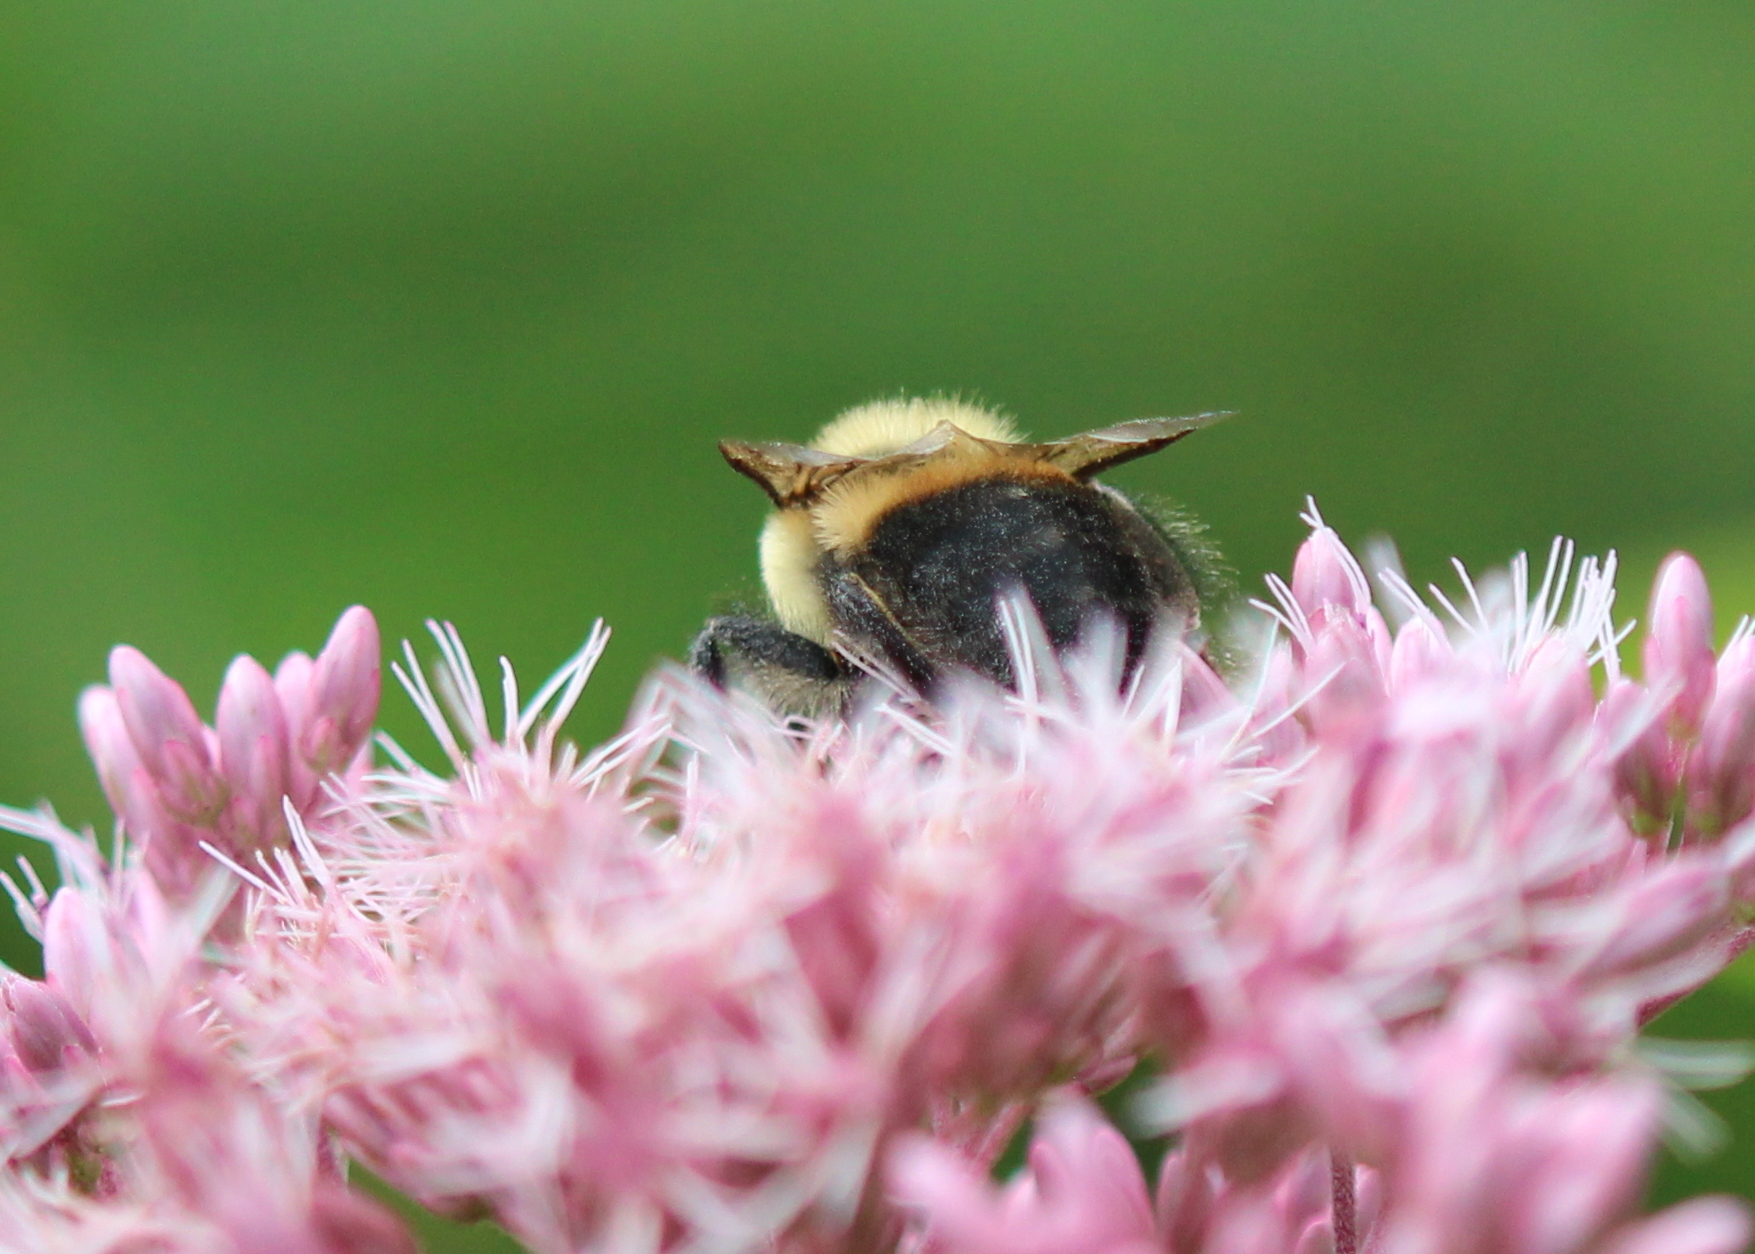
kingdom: Animalia
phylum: Arthropoda
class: Insecta
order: Hymenoptera
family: Apidae
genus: Bombus
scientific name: Bombus griseocollis
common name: Brown-belted bumble bee
